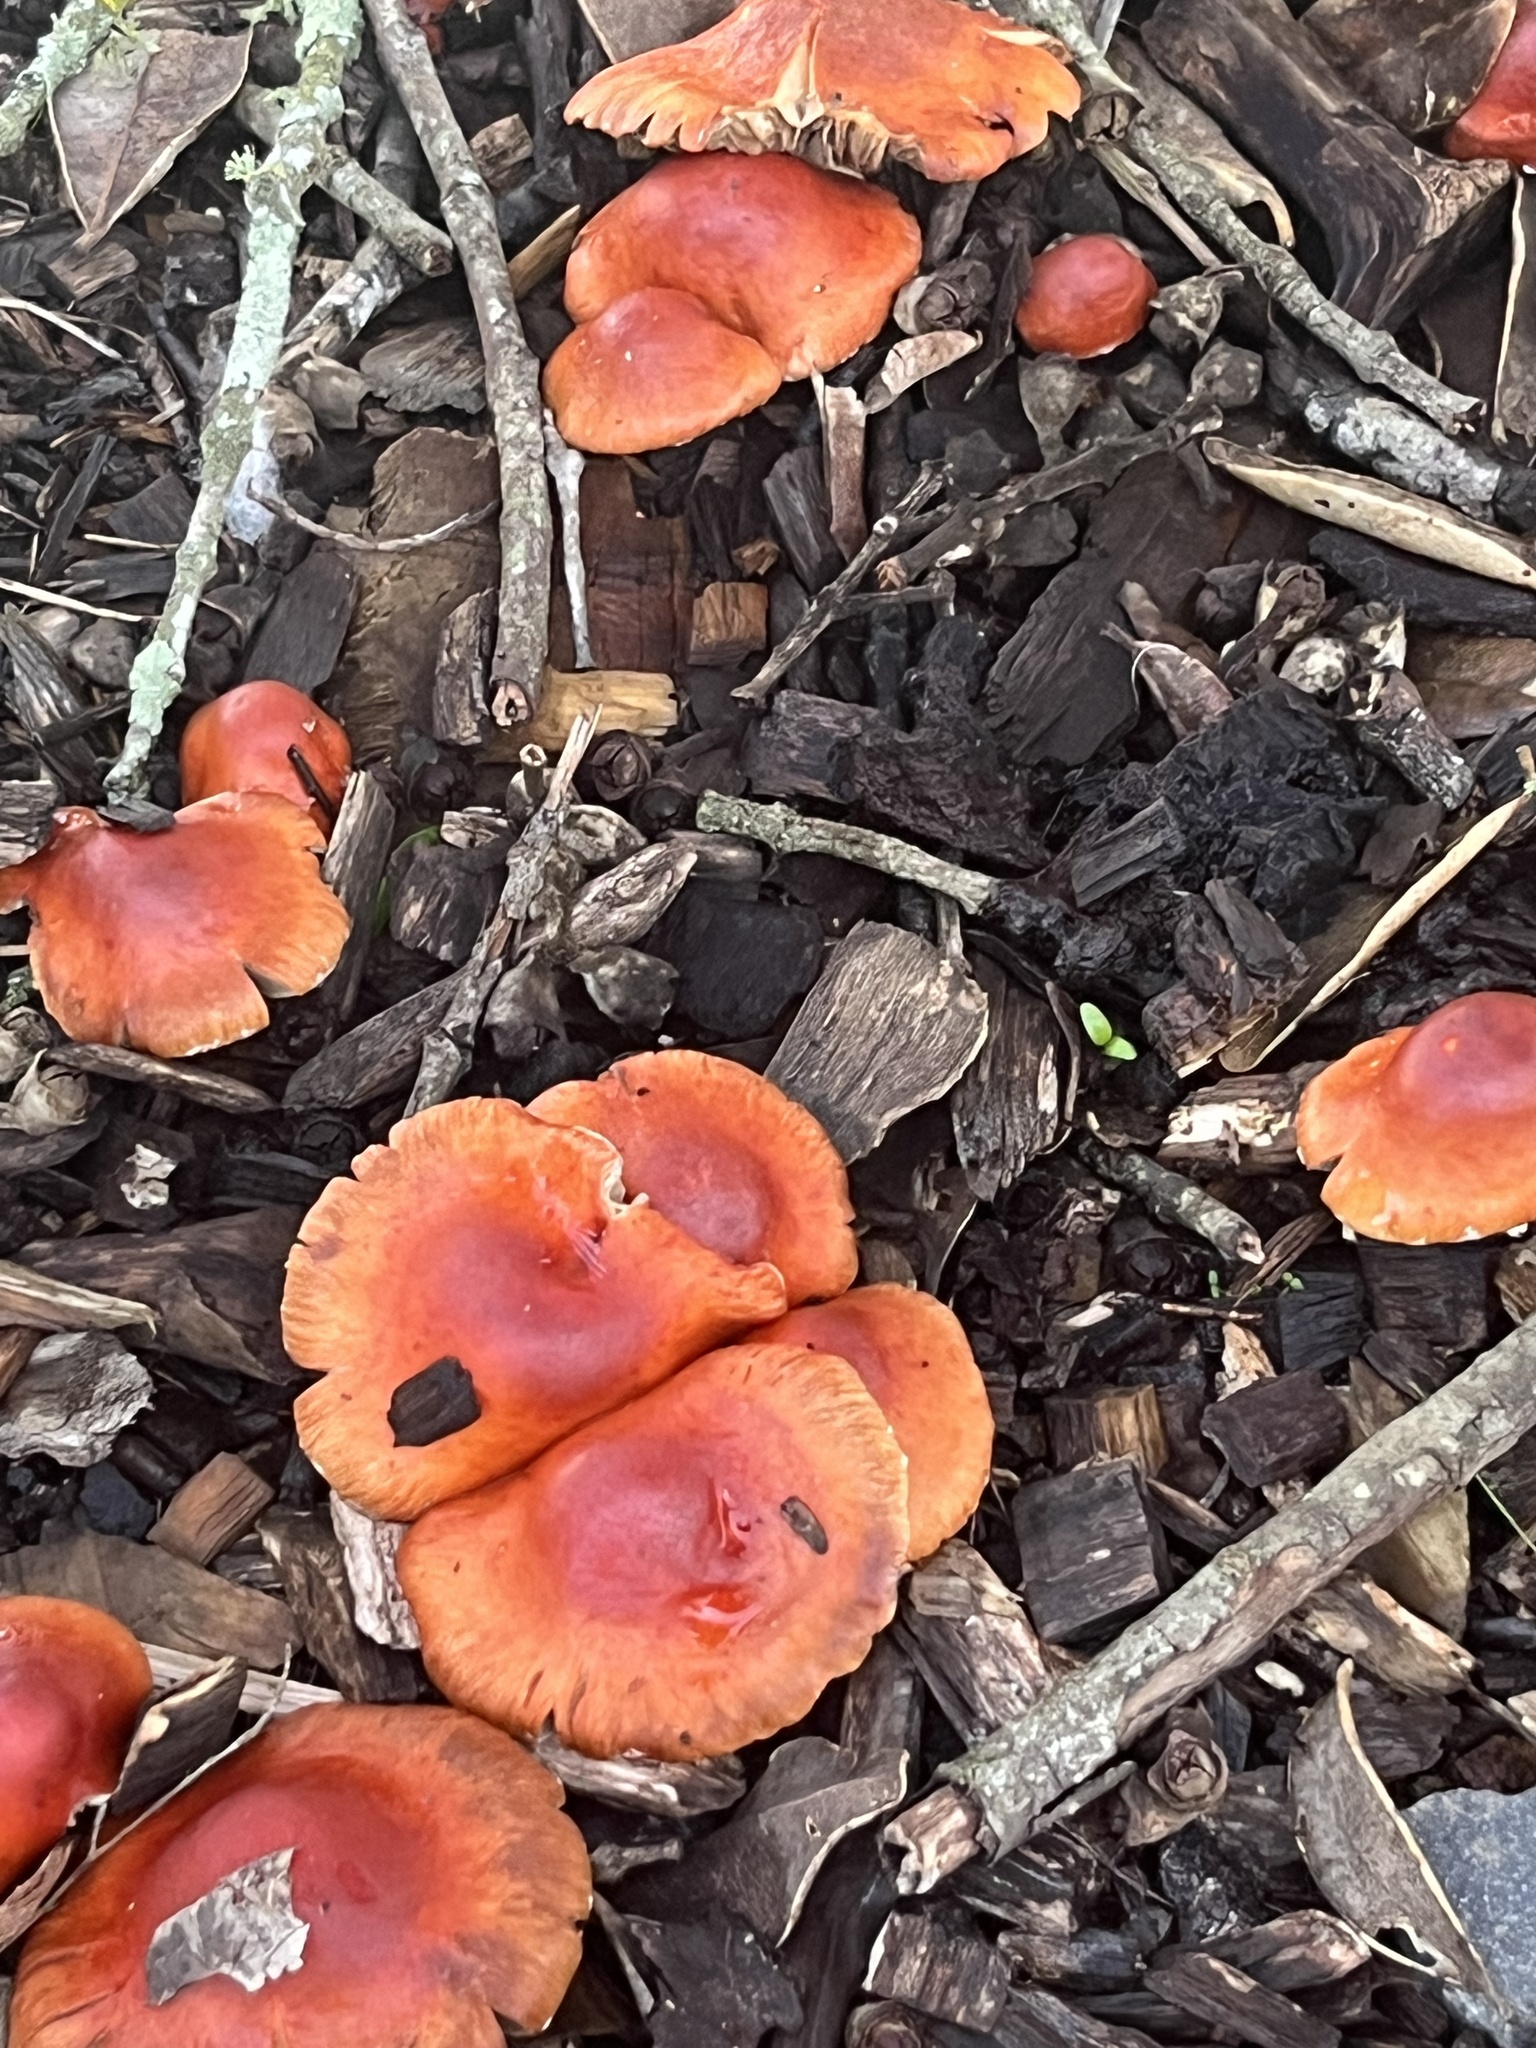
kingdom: Fungi
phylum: Basidiomycota
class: Agaricomycetes
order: Agaricales
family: Strophariaceae
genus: Leratiomyces
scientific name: Leratiomyces ceres
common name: Redlead roundhead
